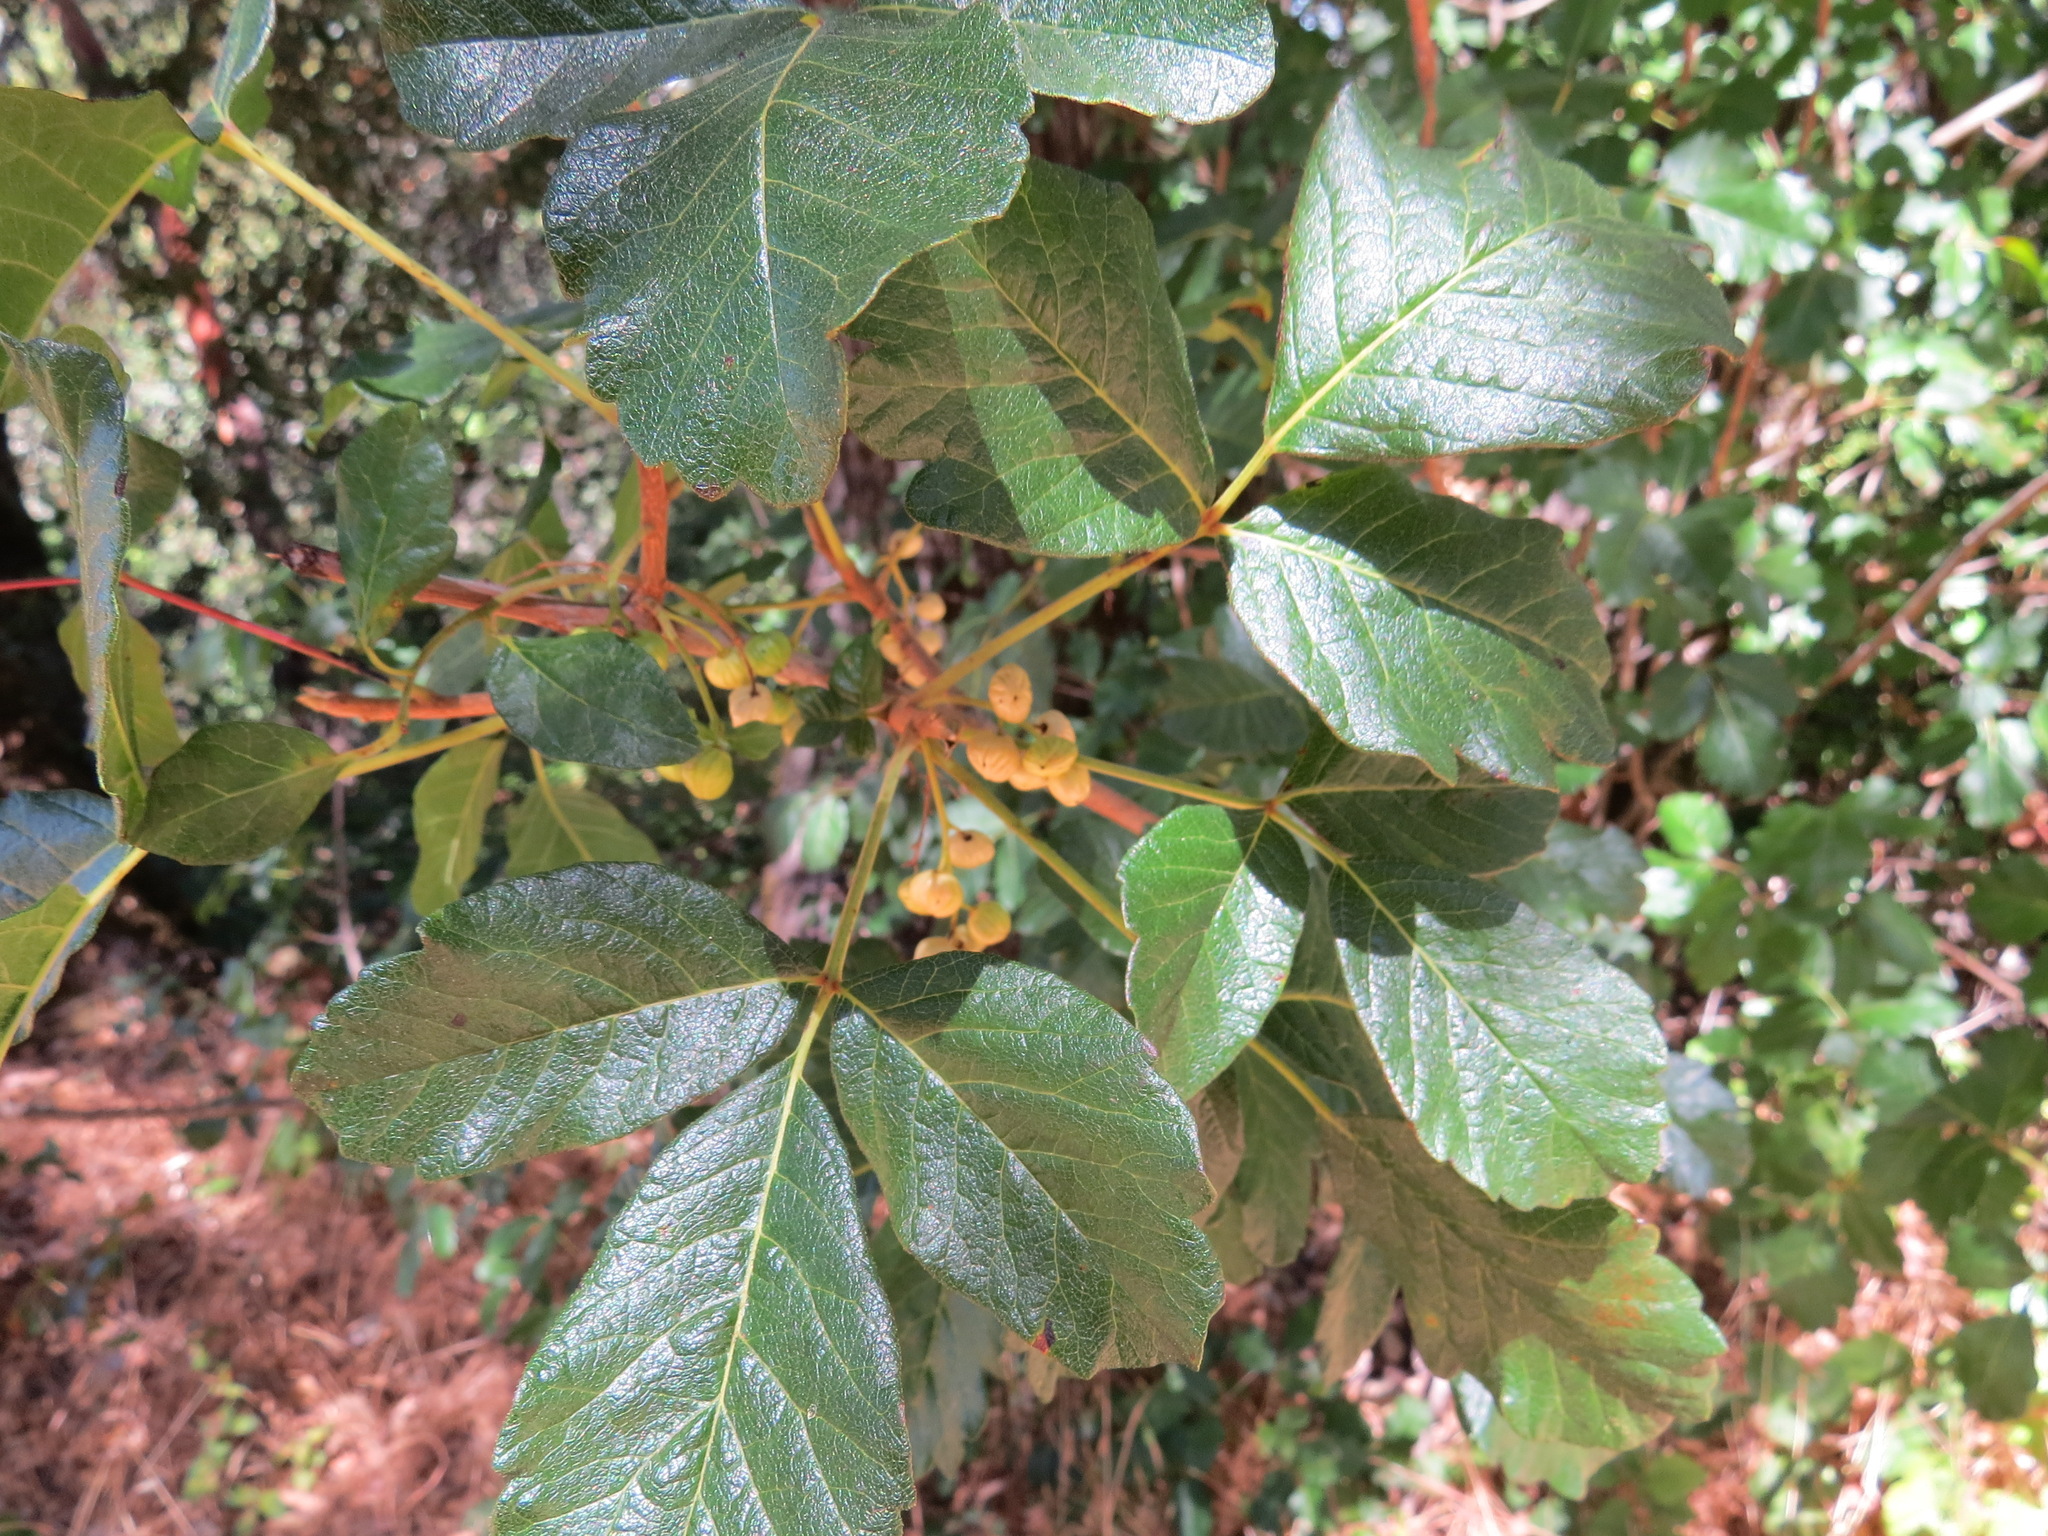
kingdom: Plantae
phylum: Tracheophyta
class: Magnoliopsida
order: Sapindales
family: Anacardiaceae
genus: Toxicodendron
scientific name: Toxicodendron diversilobum
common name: Pacific poison-oak
